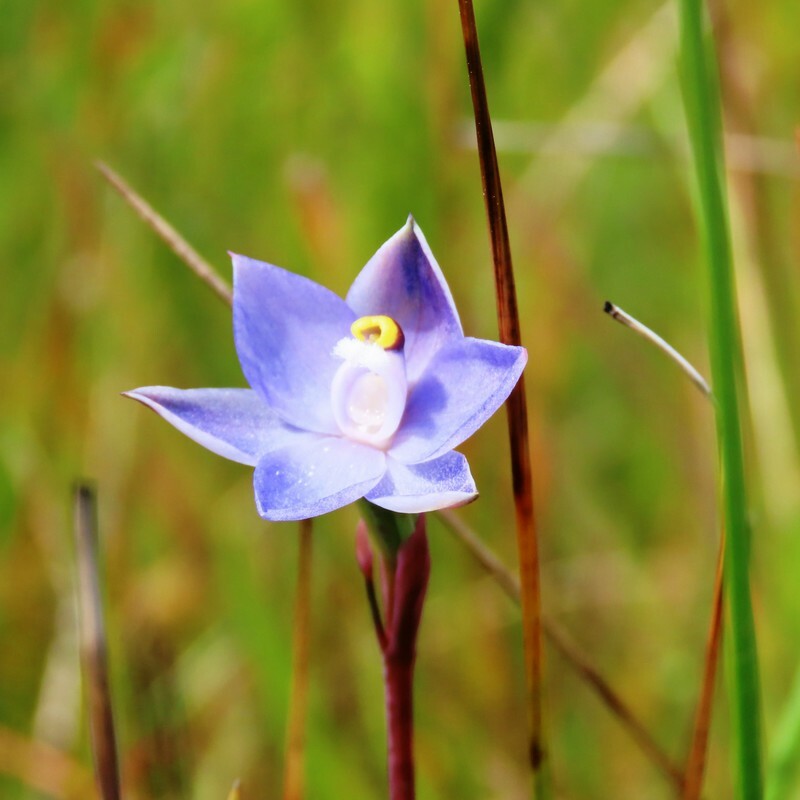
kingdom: Plantae
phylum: Tracheophyta
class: Liliopsida
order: Asparagales
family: Orchidaceae
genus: Thelymitra
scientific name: Thelymitra arenaria
